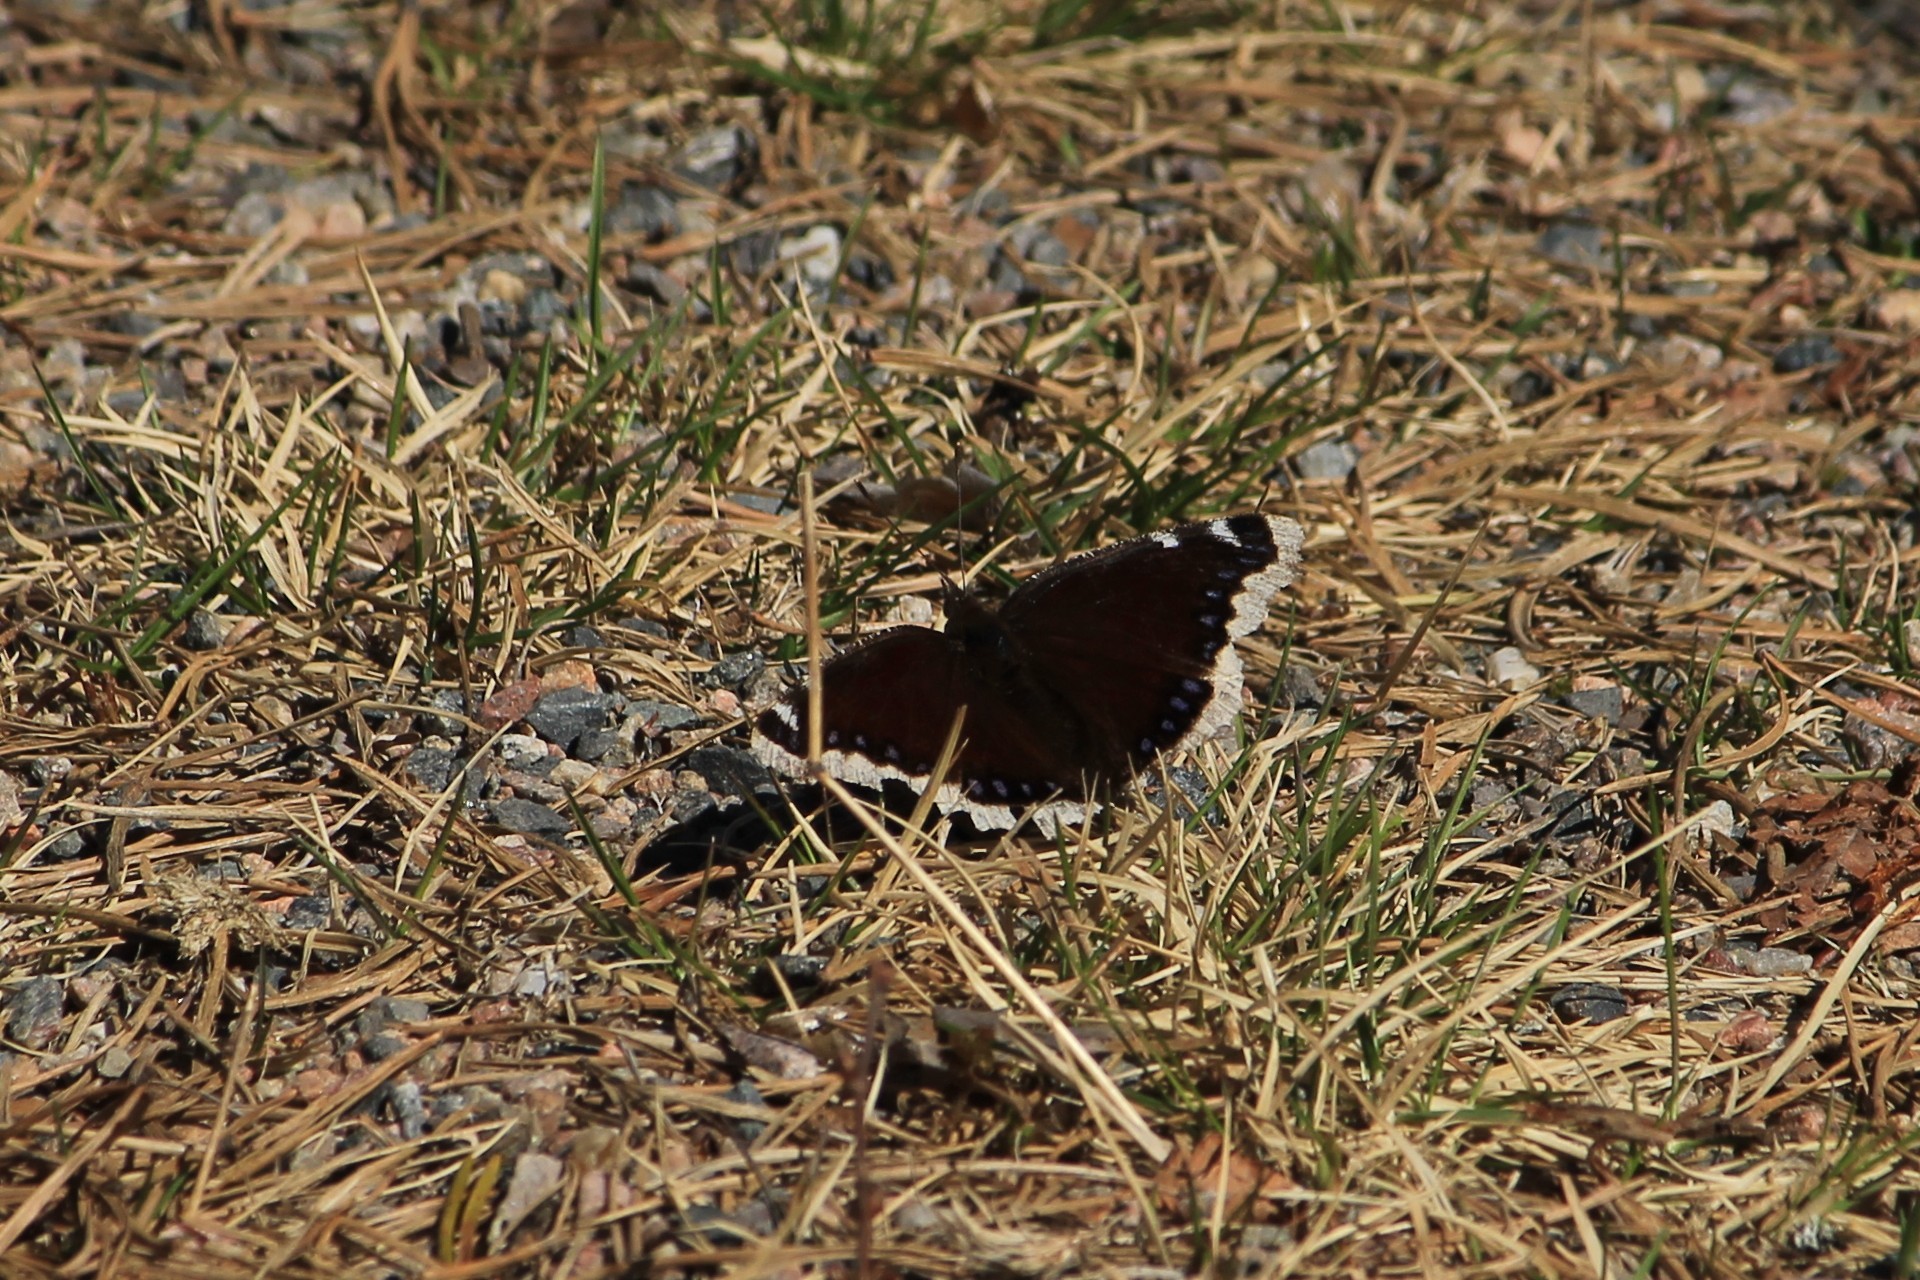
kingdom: Animalia
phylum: Arthropoda
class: Insecta
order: Lepidoptera
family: Nymphalidae
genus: Nymphalis
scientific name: Nymphalis antiopa
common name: Camberwell beauty
